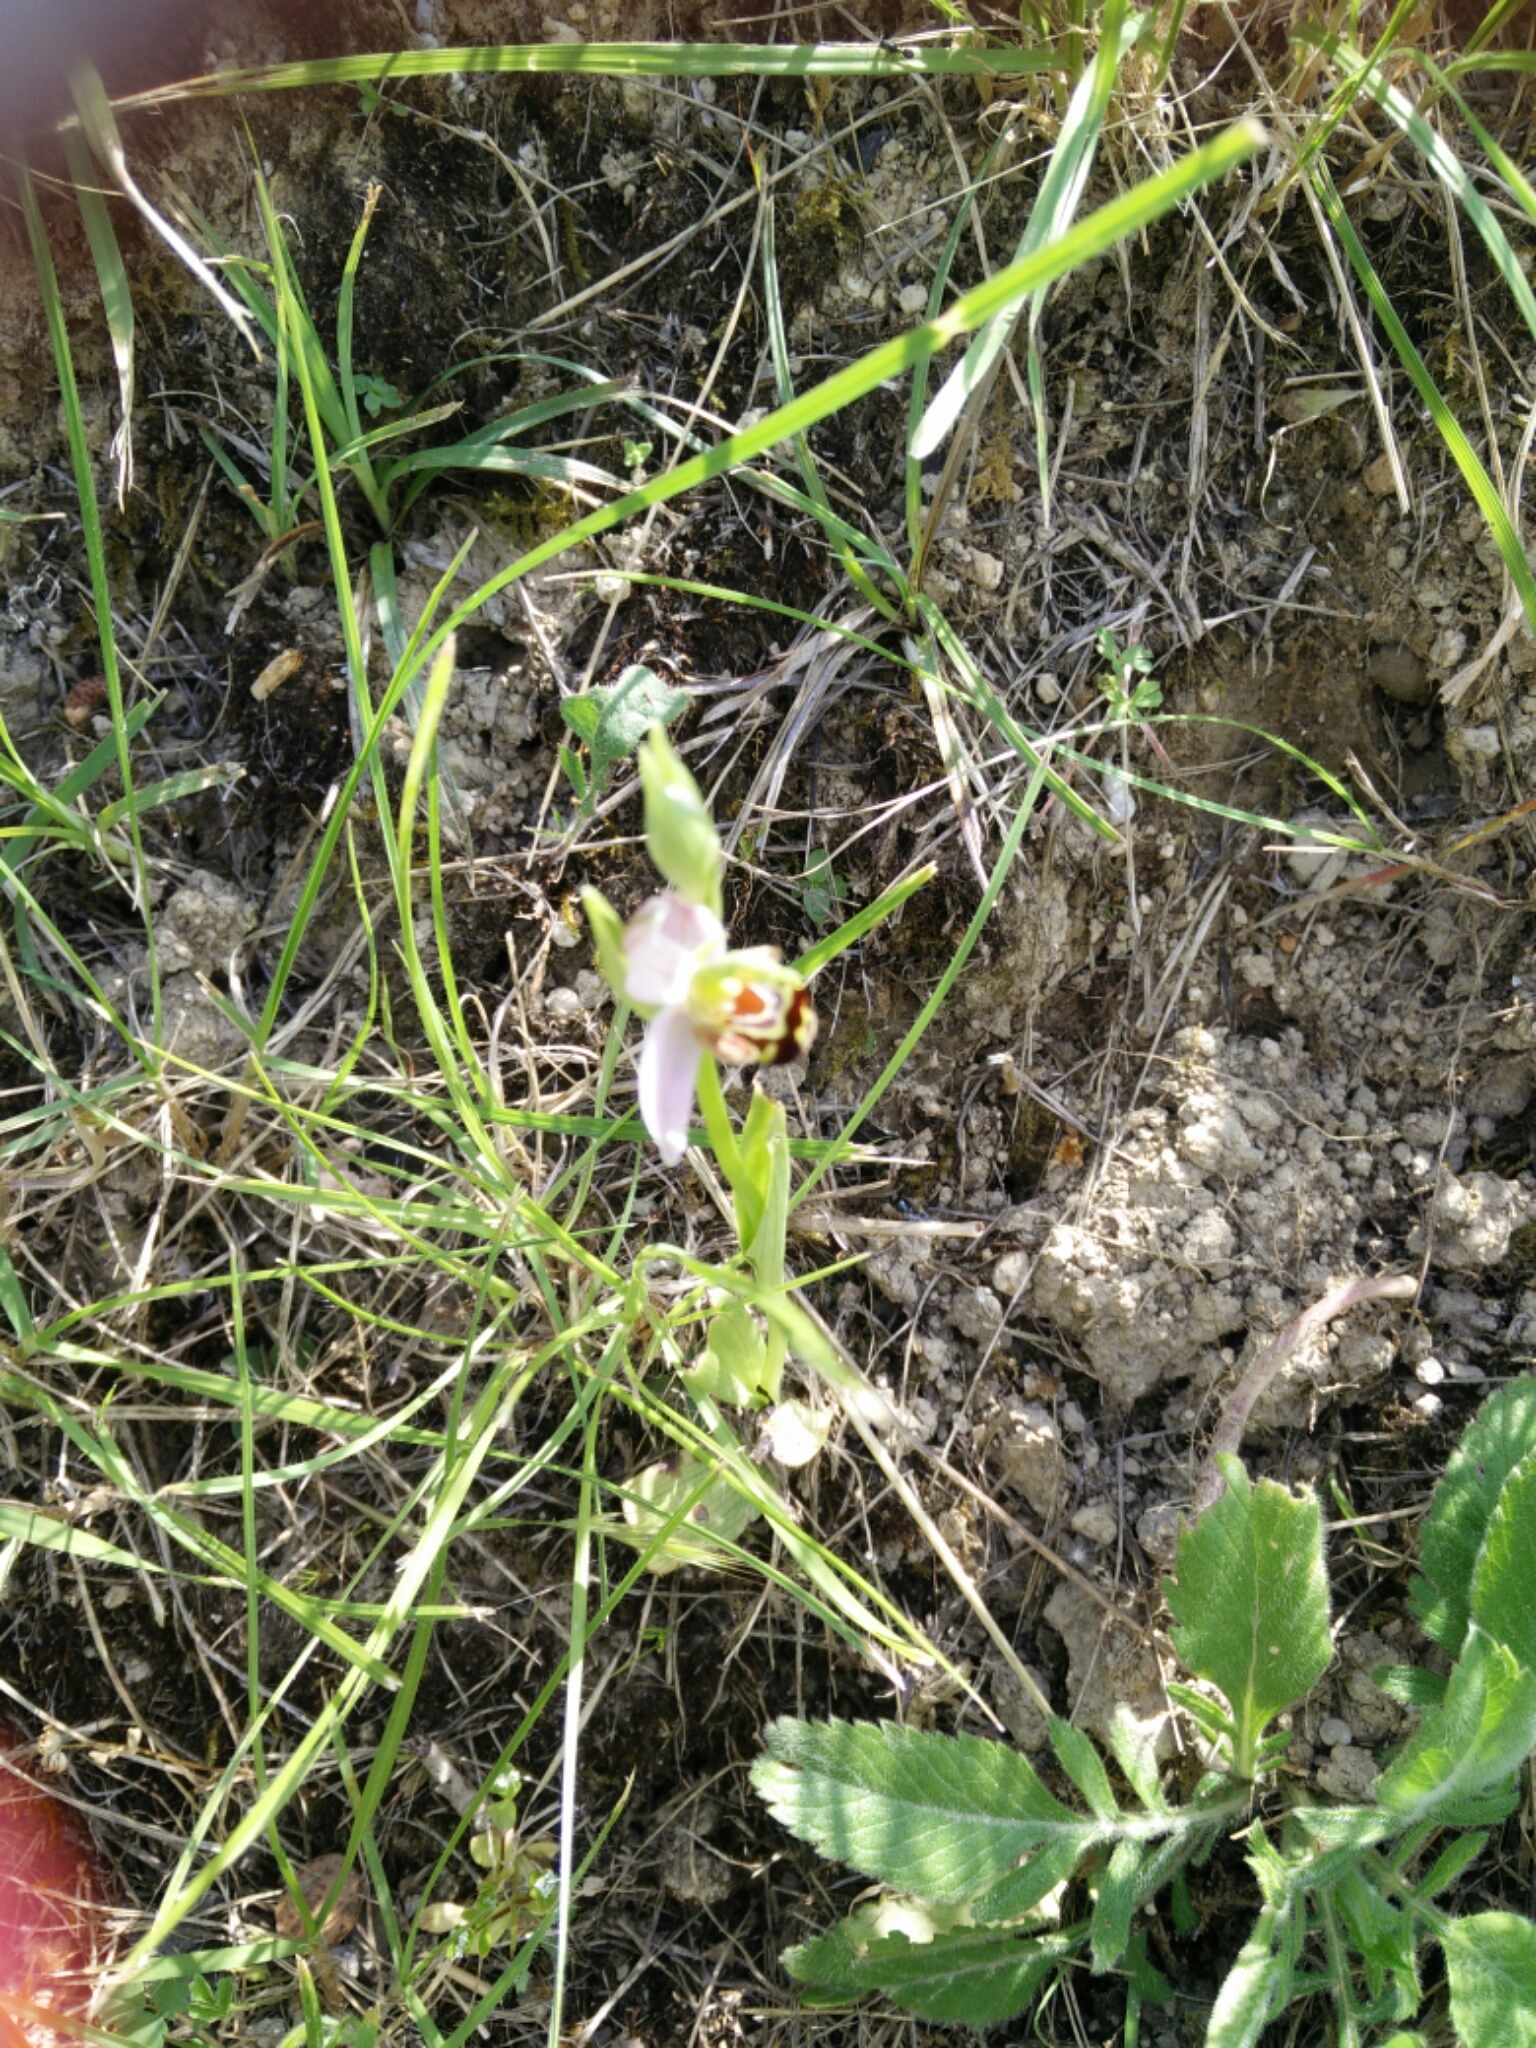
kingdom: Plantae
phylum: Tracheophyta
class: Liliopsida
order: Asparagales
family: Orchidaceae
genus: Ophrys
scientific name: Ophrys apifera
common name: Bee orchid
